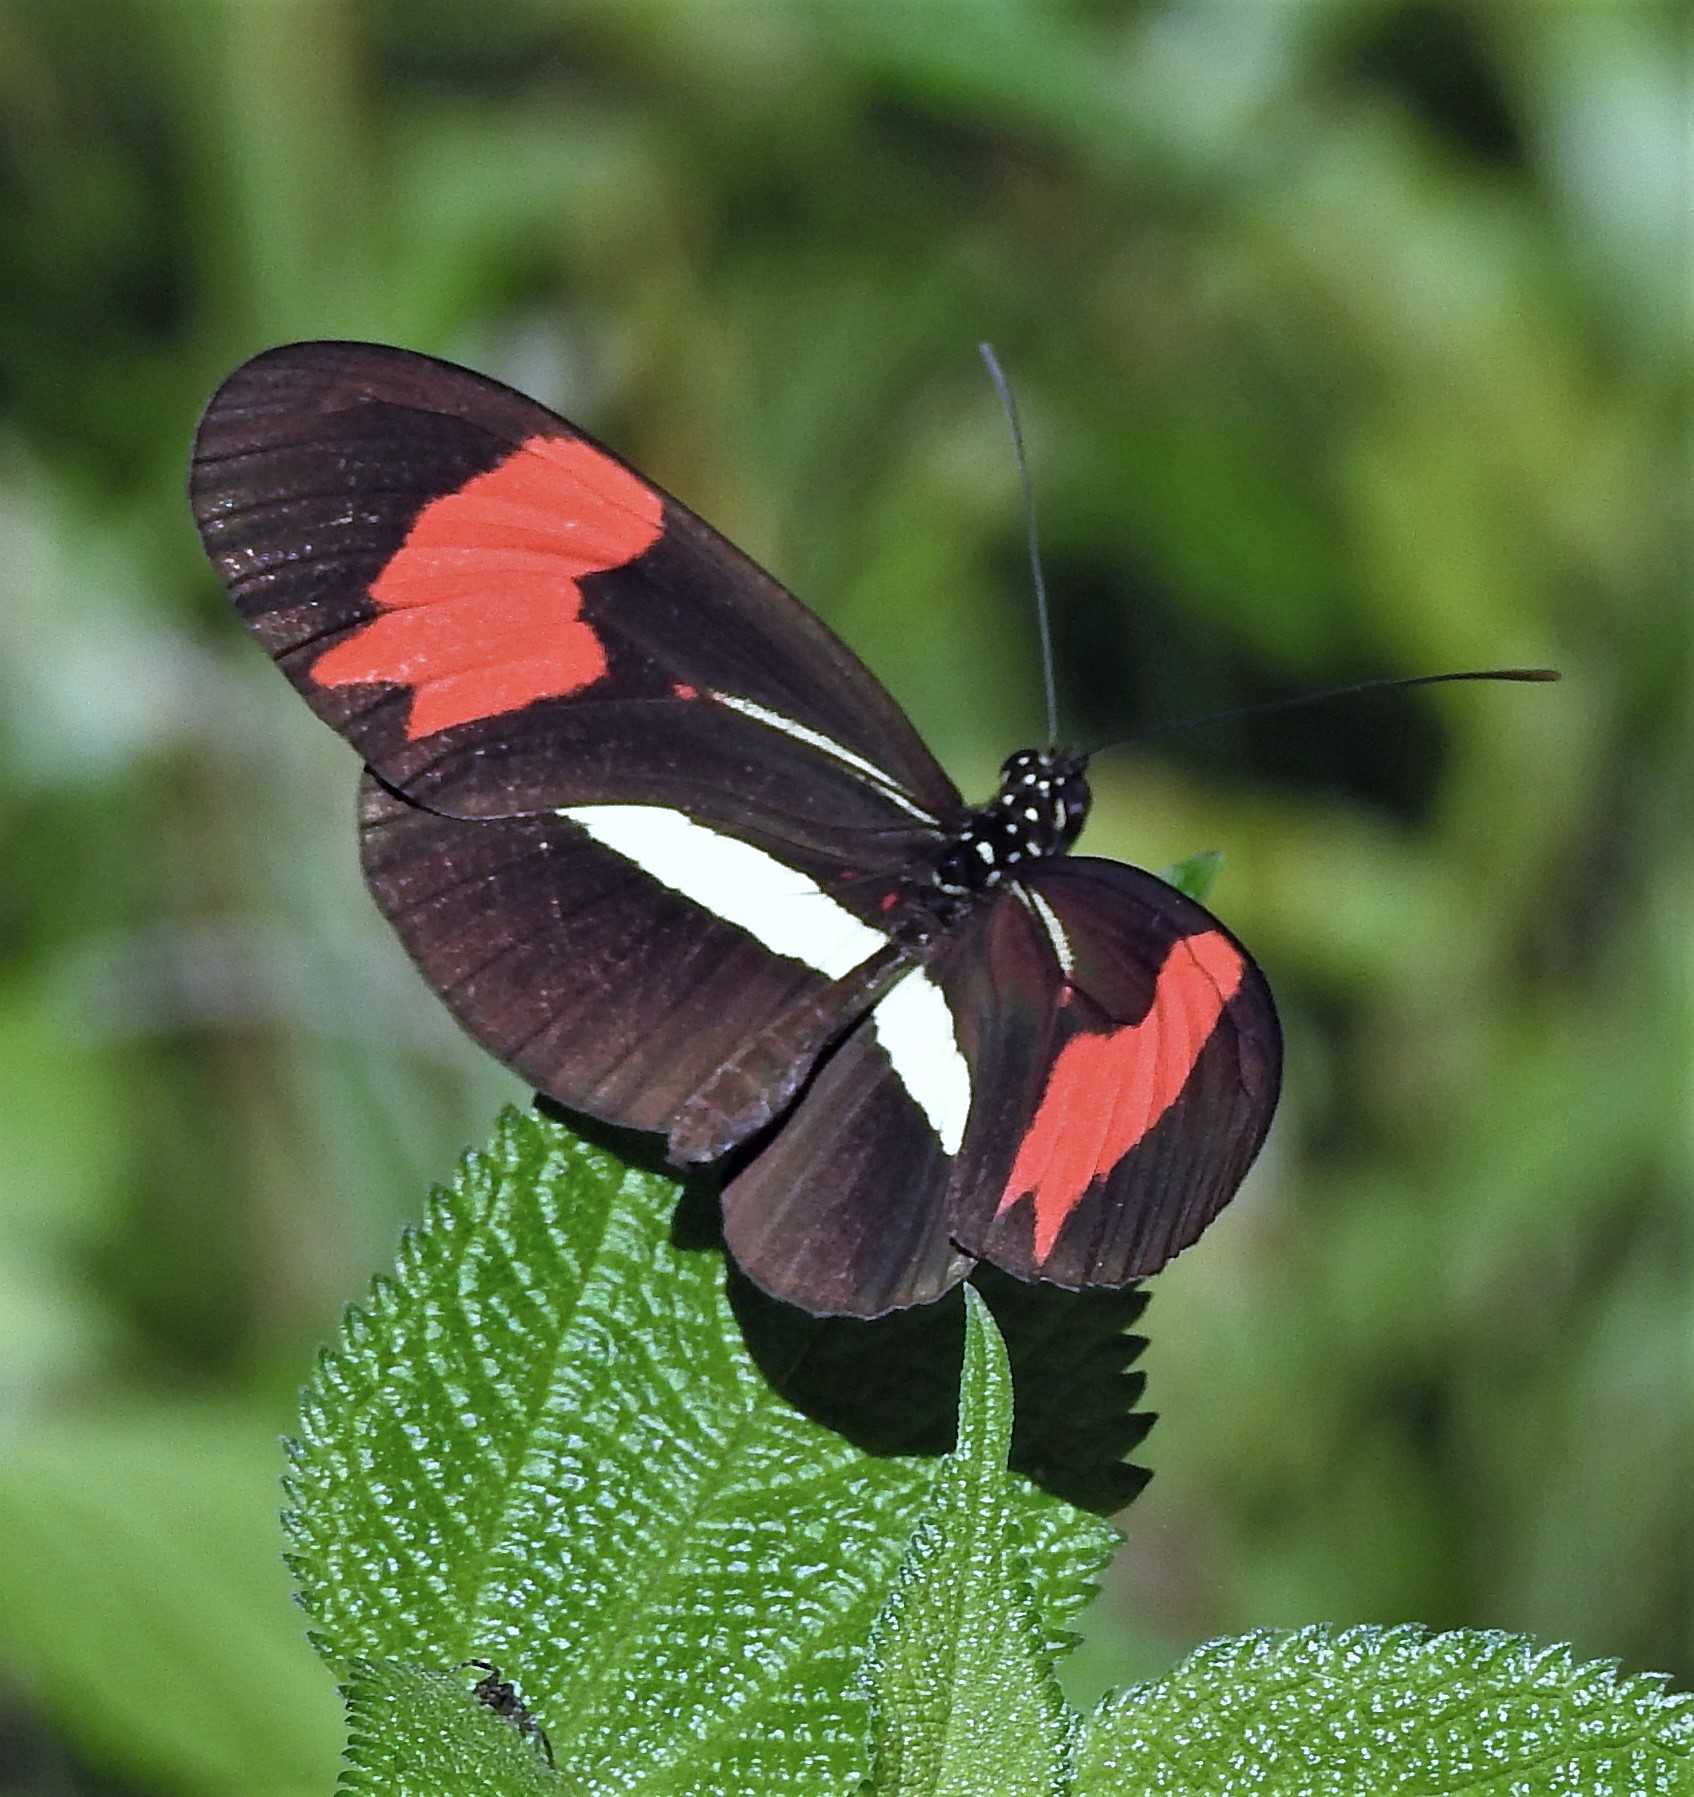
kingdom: Animalia
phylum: Arthropoda
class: Insecta
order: Lepidoptera
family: Nymphalidae
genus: Heliconius
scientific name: Heliconius erato
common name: Common patch longwing
